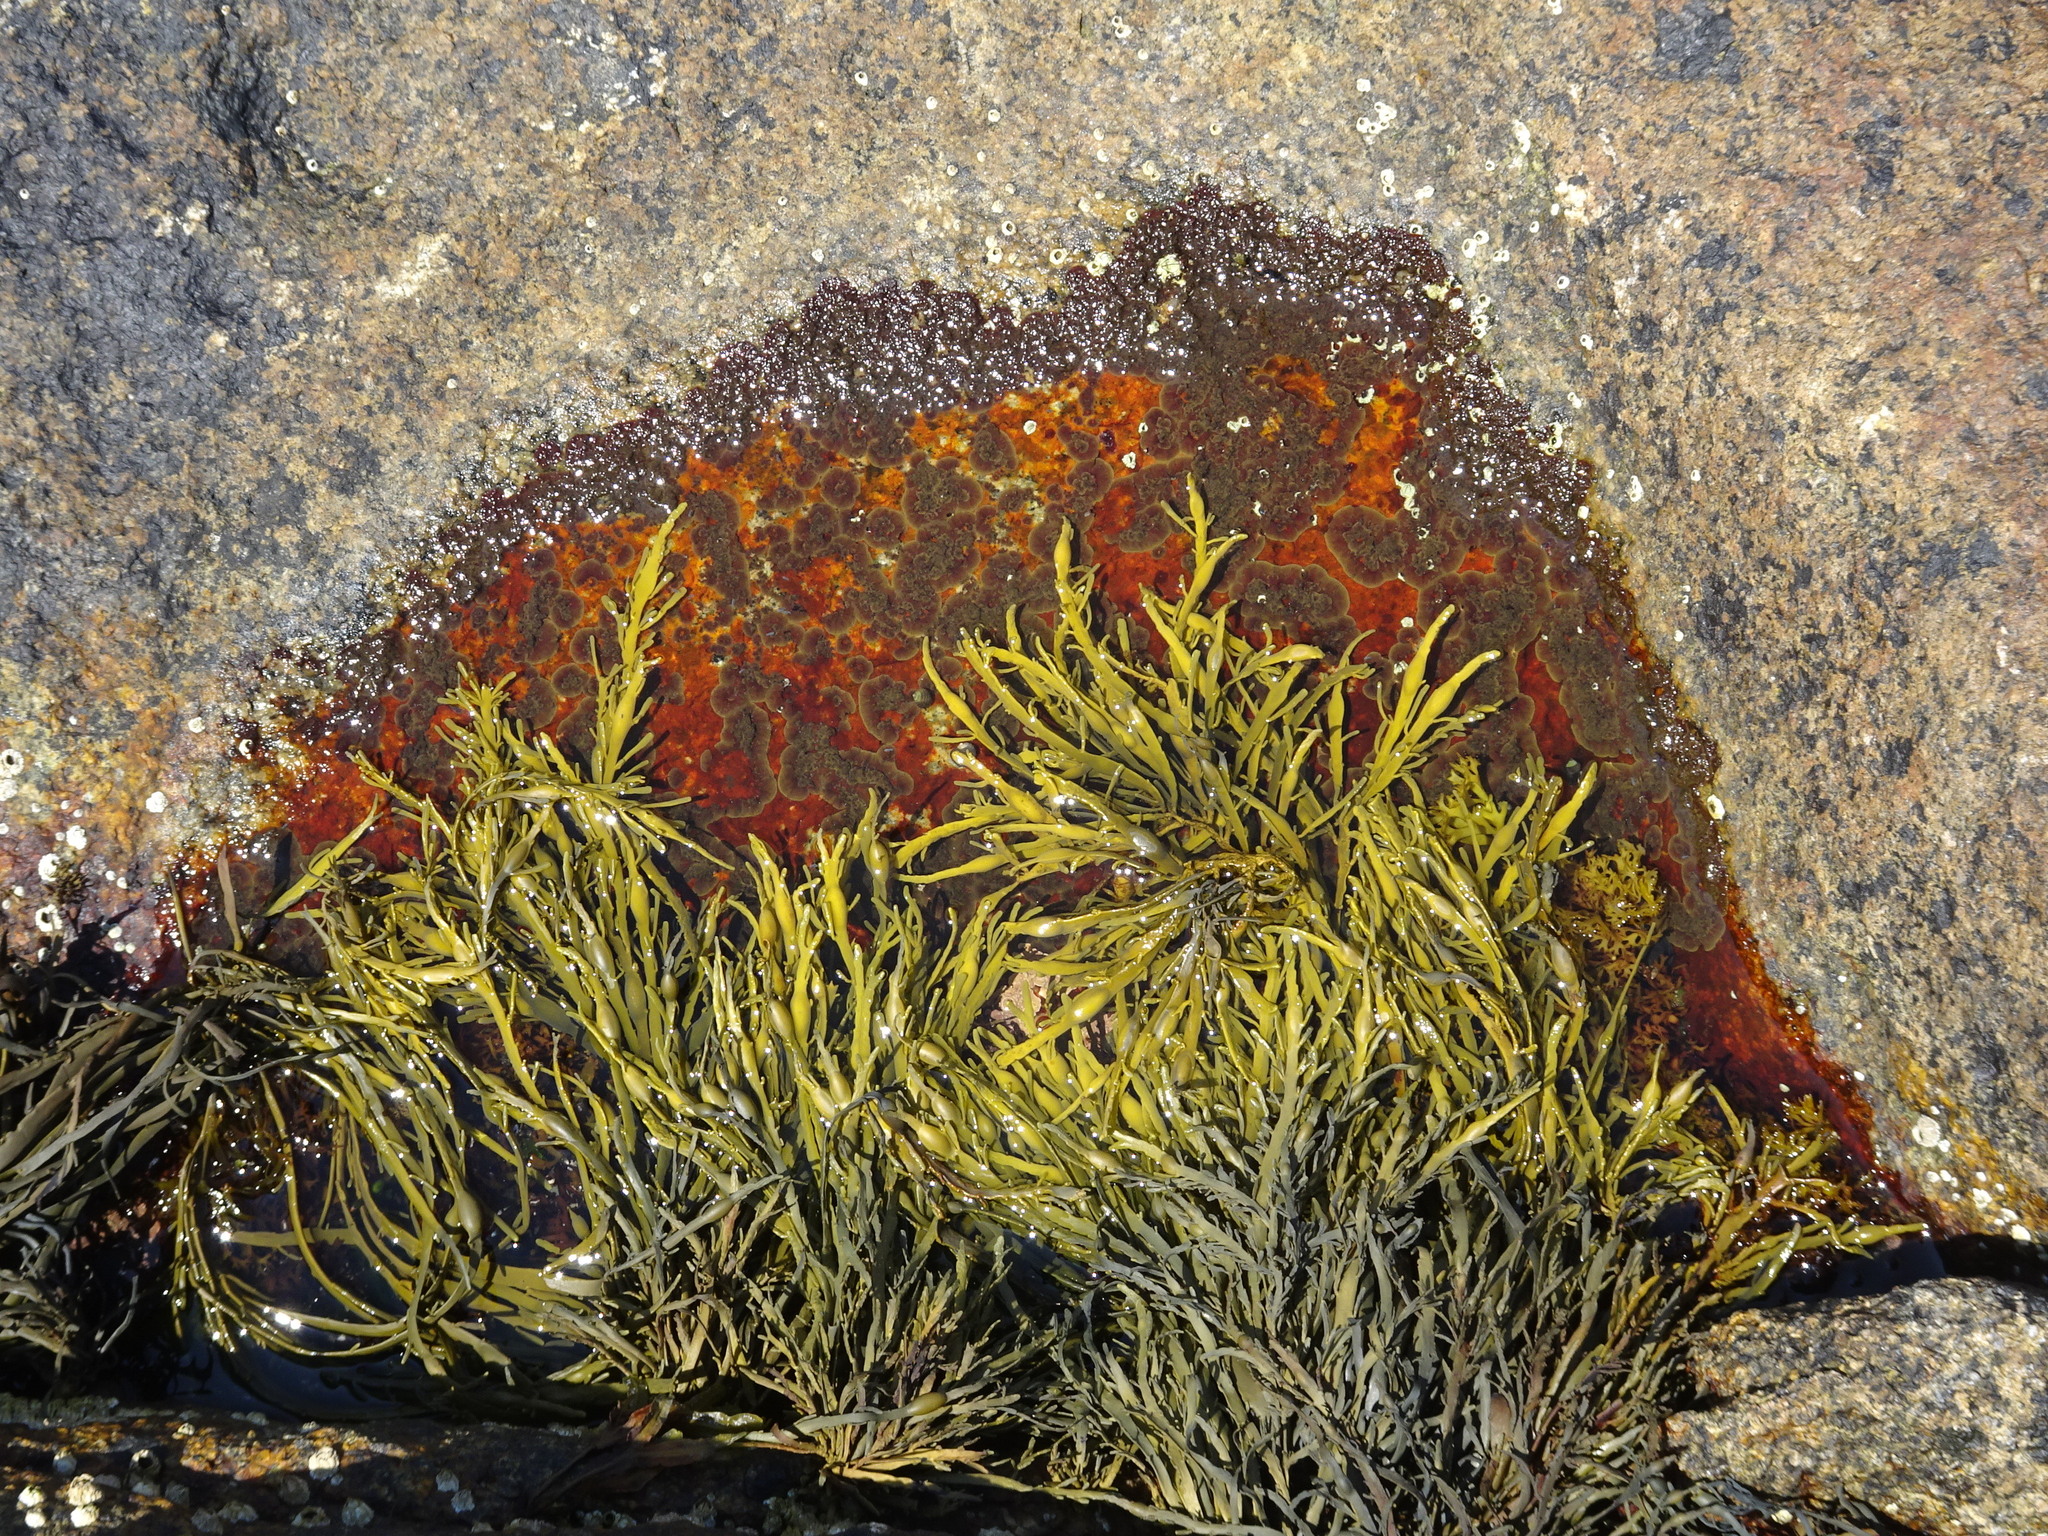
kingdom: Chromista
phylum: Ochrophyta
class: Phaeophyceae
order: Fucales
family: Fucaceae
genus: Ascophyllum
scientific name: Ascophyllum nodosum
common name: Knotted wrack
